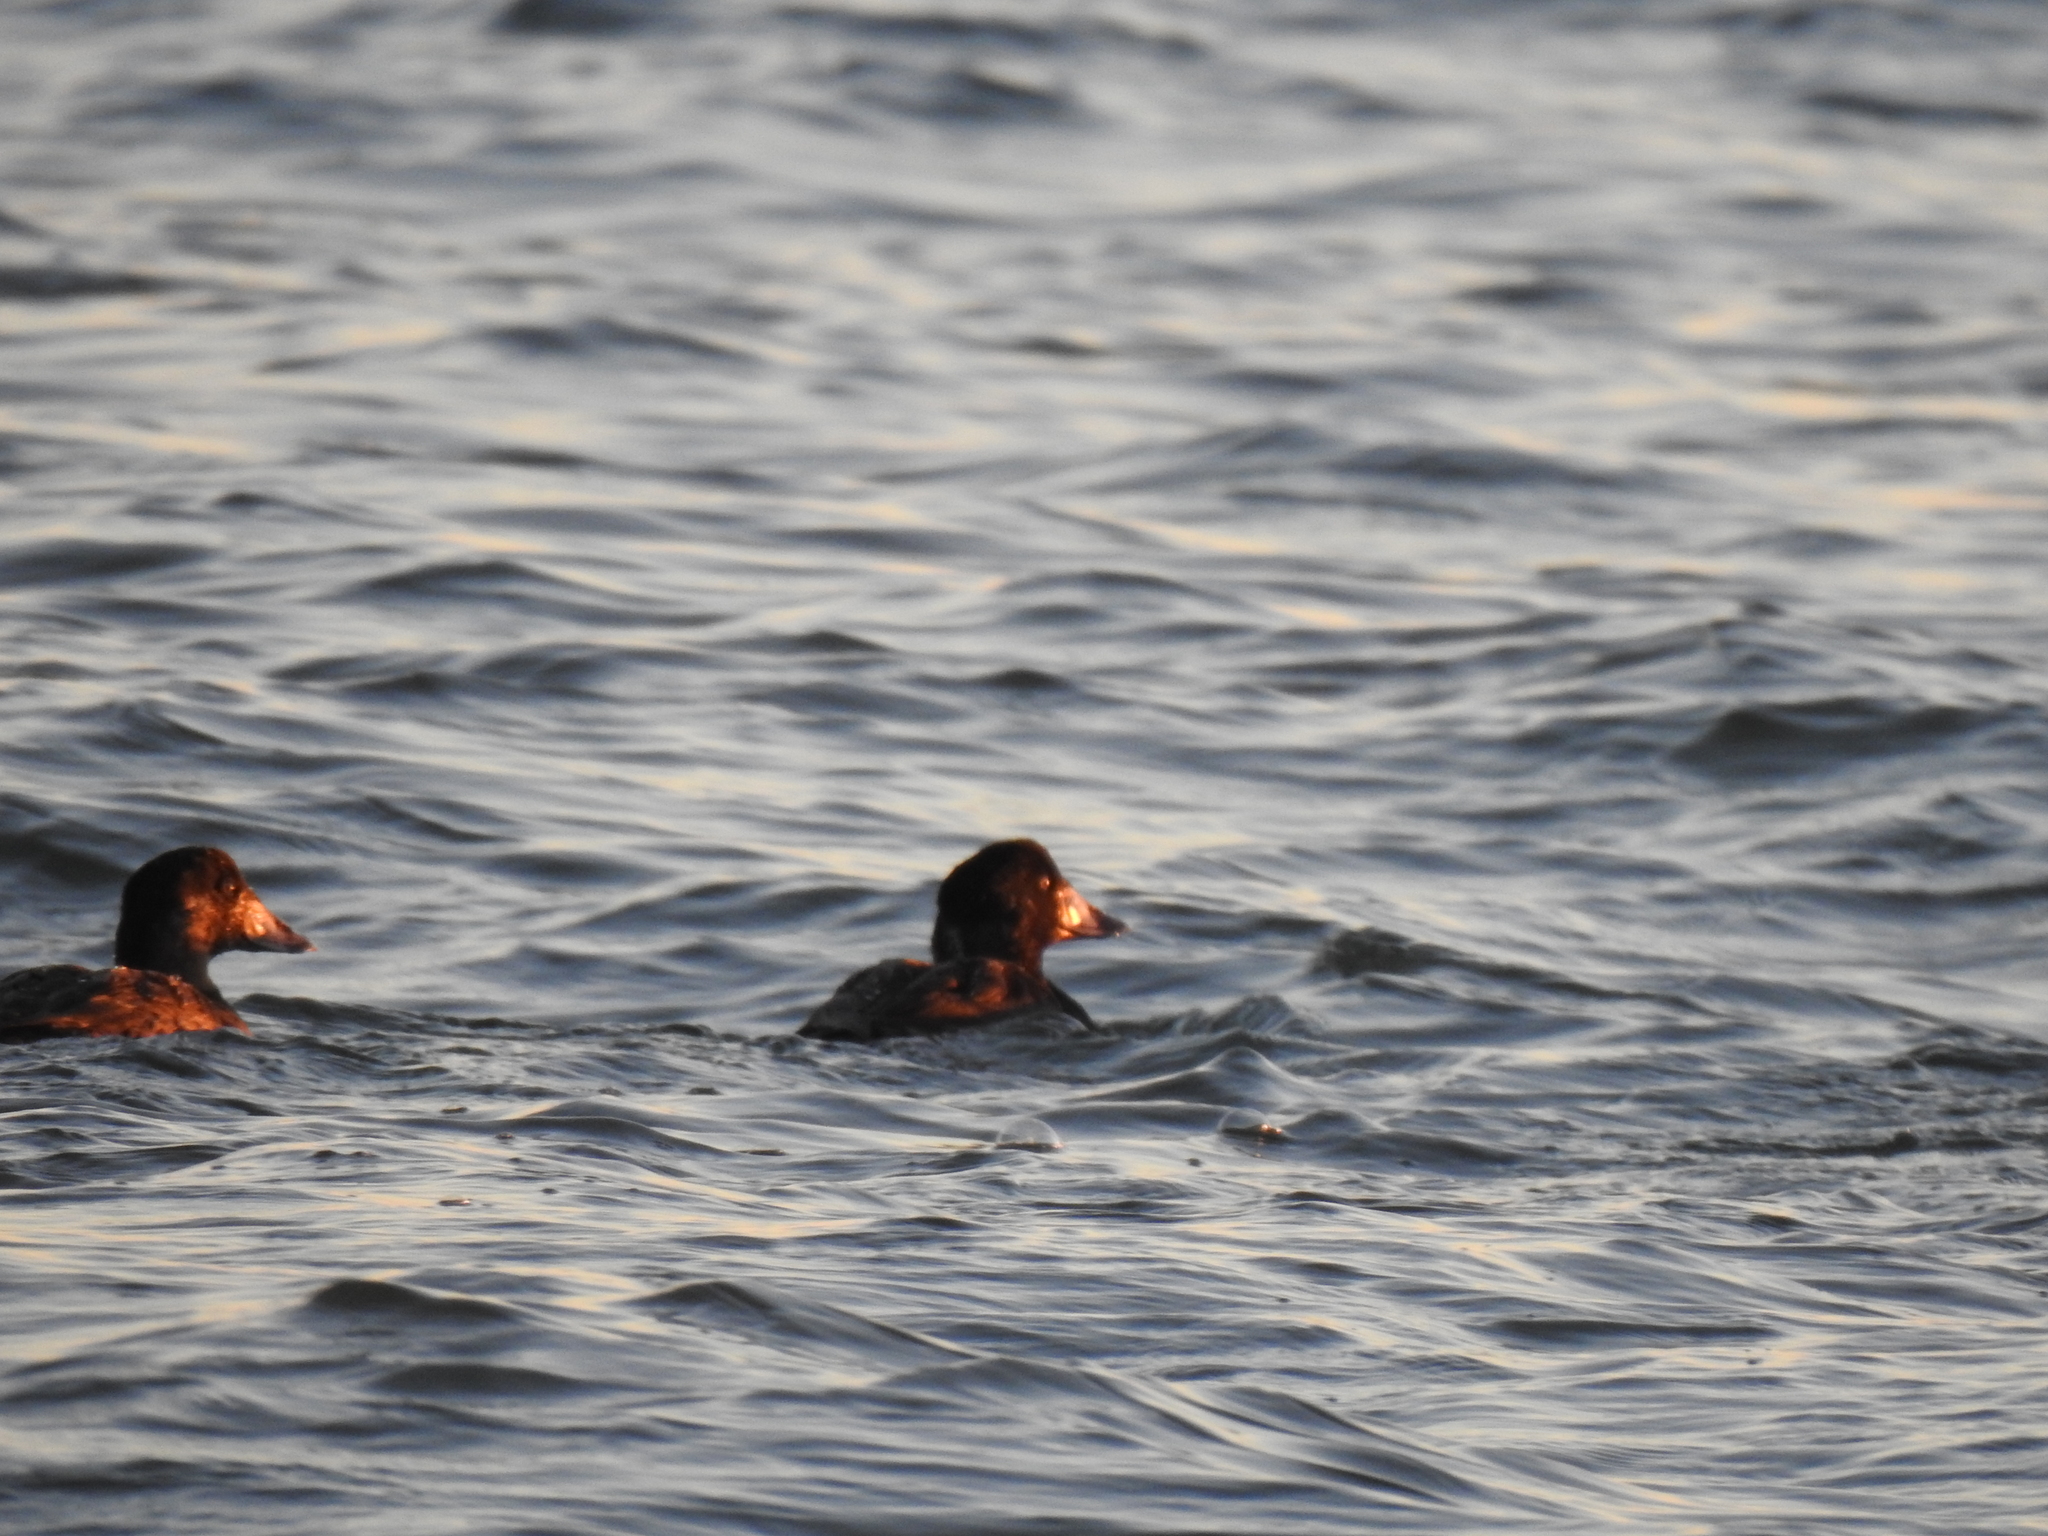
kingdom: Animalia
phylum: Chordata
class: Aves
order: Anseriformes
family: Anatidae
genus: Melanitta
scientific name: Melanitta perspicillata
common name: Surf scoter
